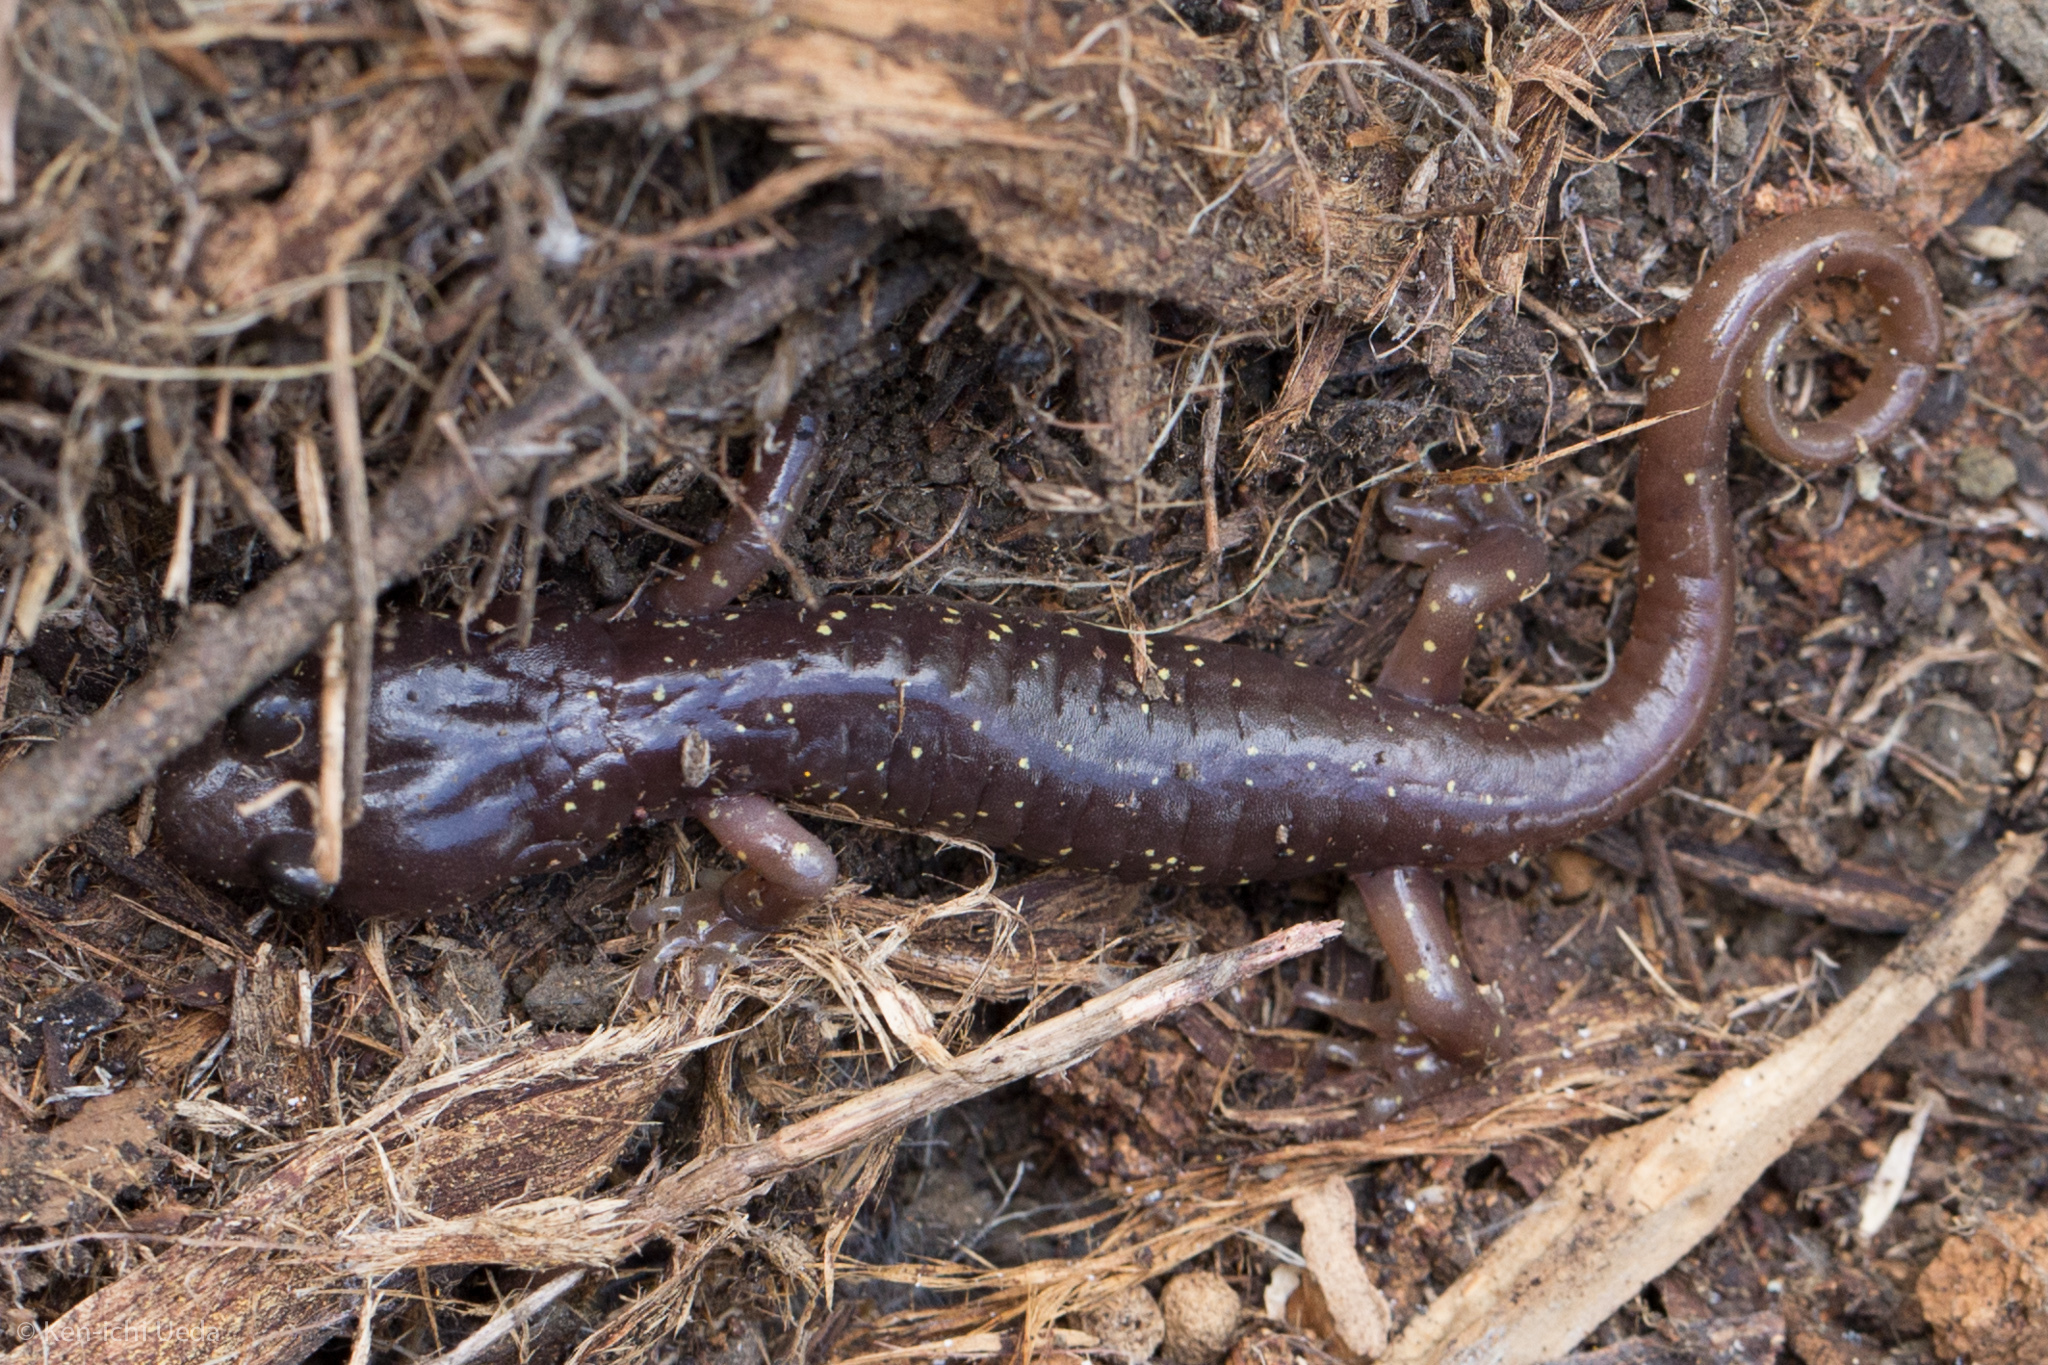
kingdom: Animalia
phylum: Chordata
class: Amphibia
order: Caudata
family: Plethodontidae
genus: Aneides
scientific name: Aneides lugubris
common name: Arboreal salamander
